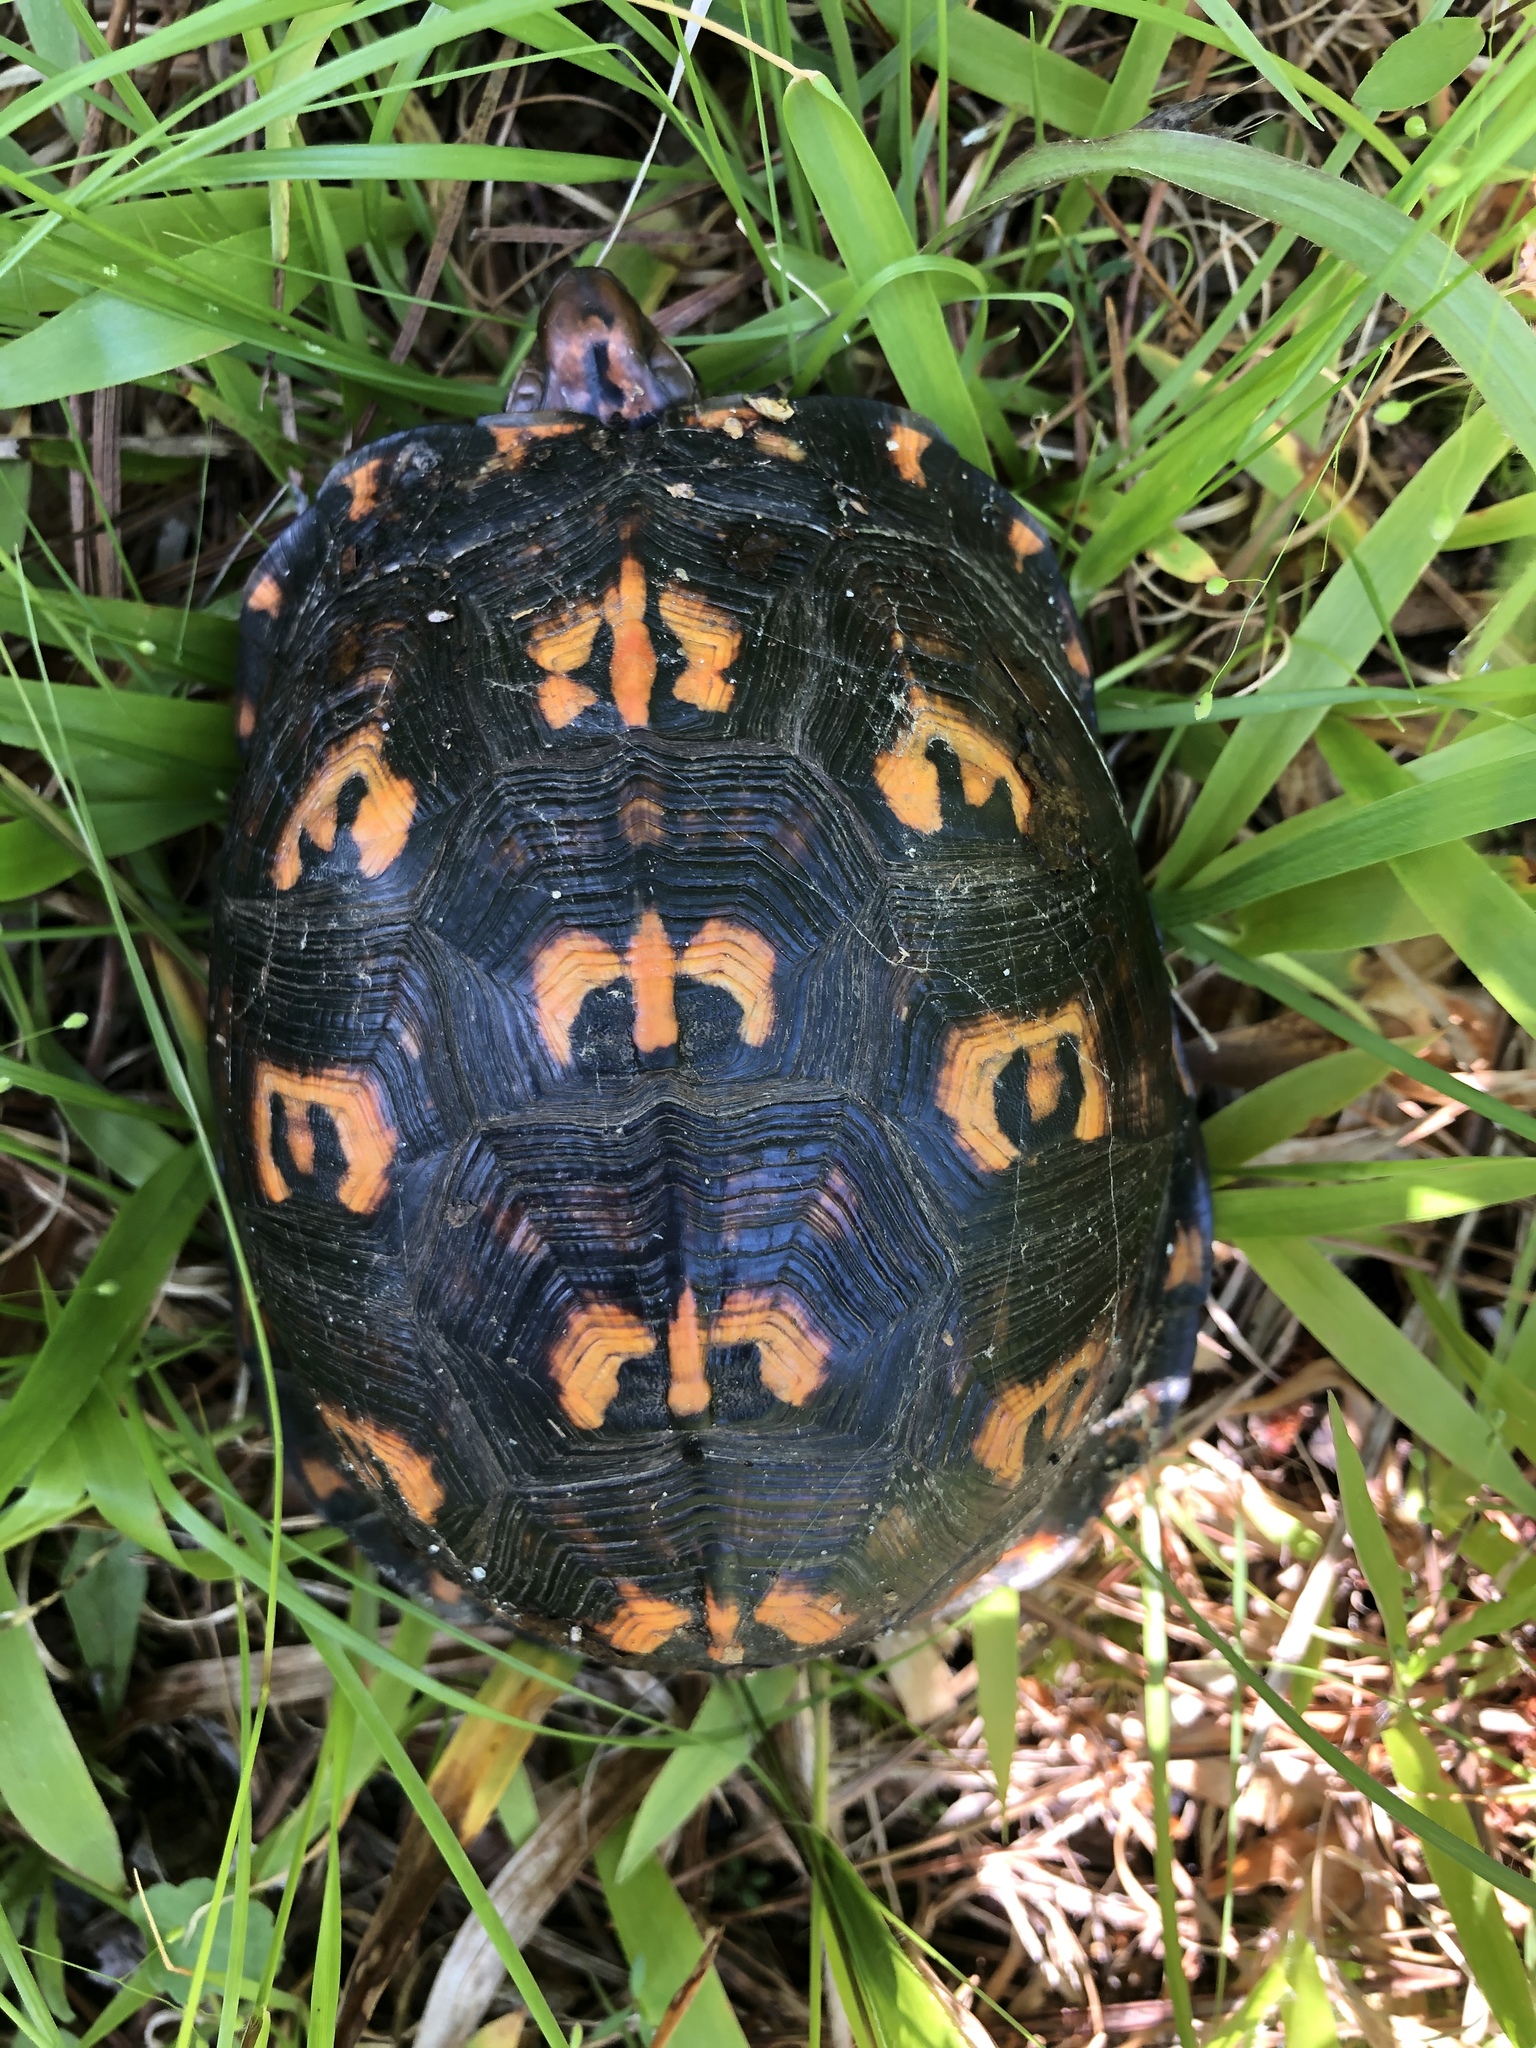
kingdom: Animalia
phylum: Chordata
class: Testudines
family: Emydidae
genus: Terrapene
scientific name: Terrapene carolina
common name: Common box turtle
